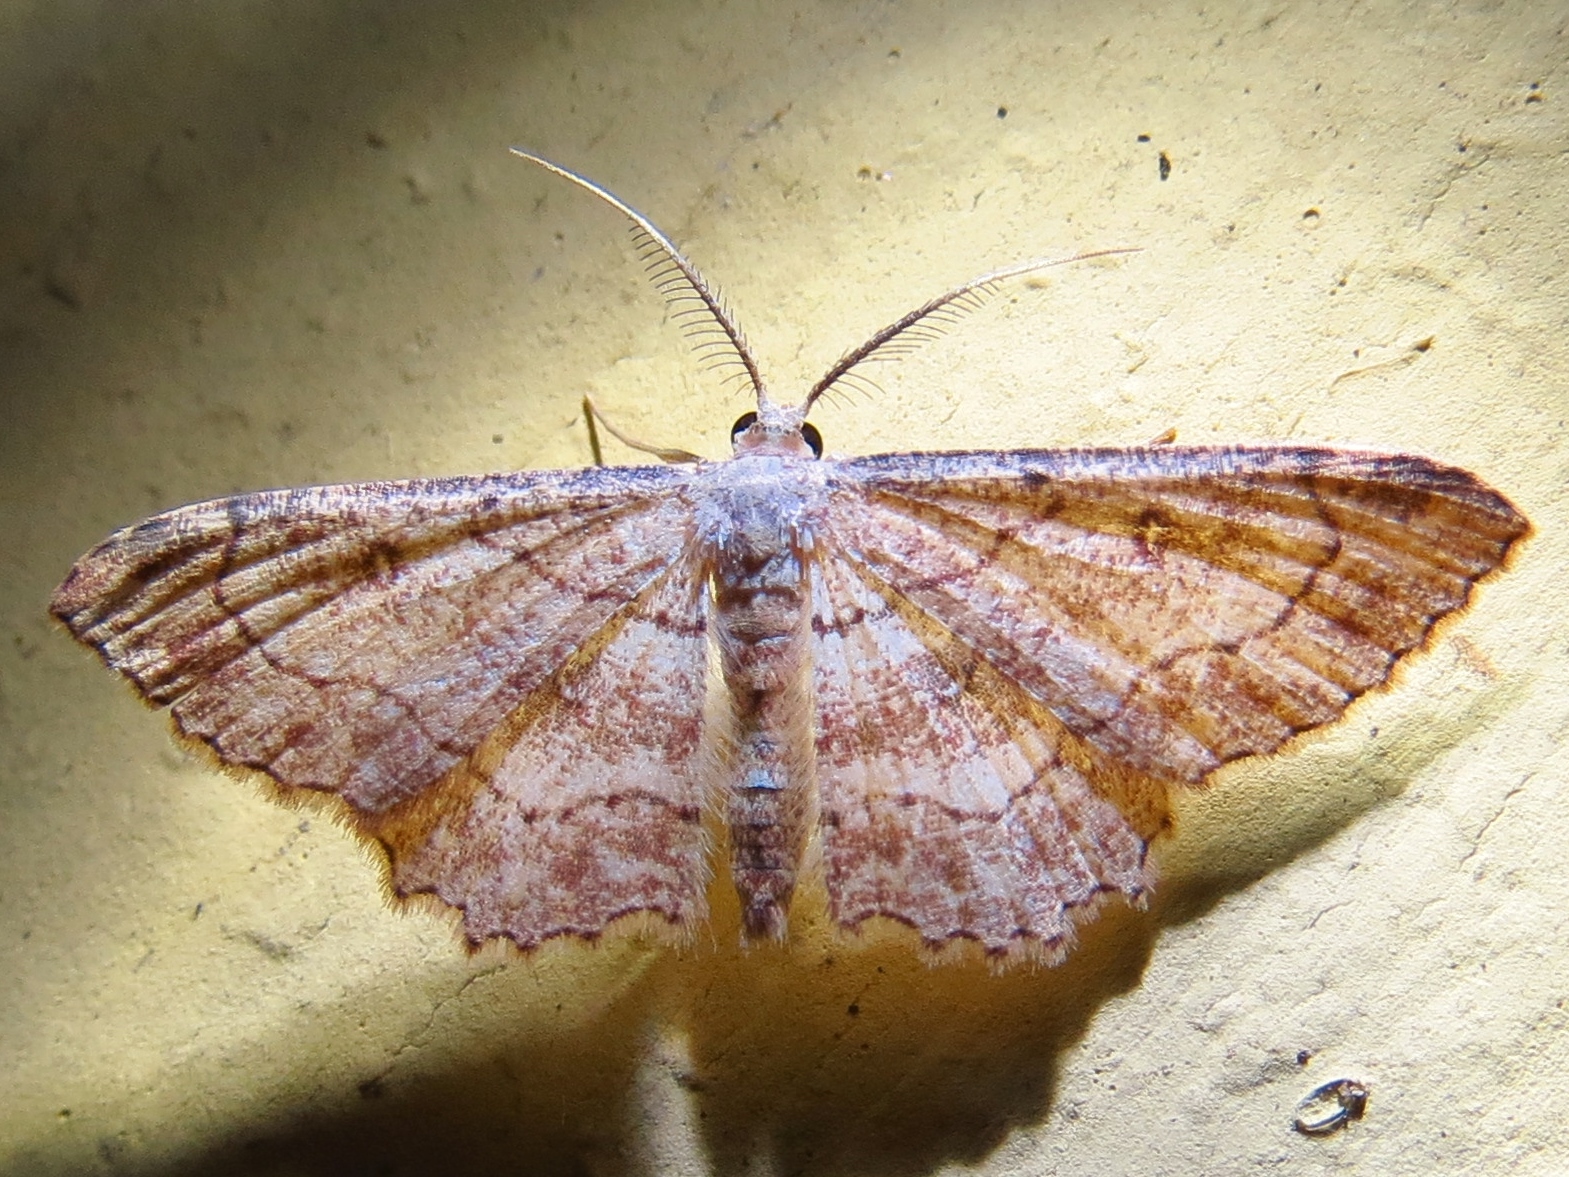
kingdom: Animalia
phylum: Arthropoda
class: Insecta
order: Lepidoptera
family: Geometridae
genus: Cyclophora
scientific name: Cyclophora nanaria
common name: Cankerworm
